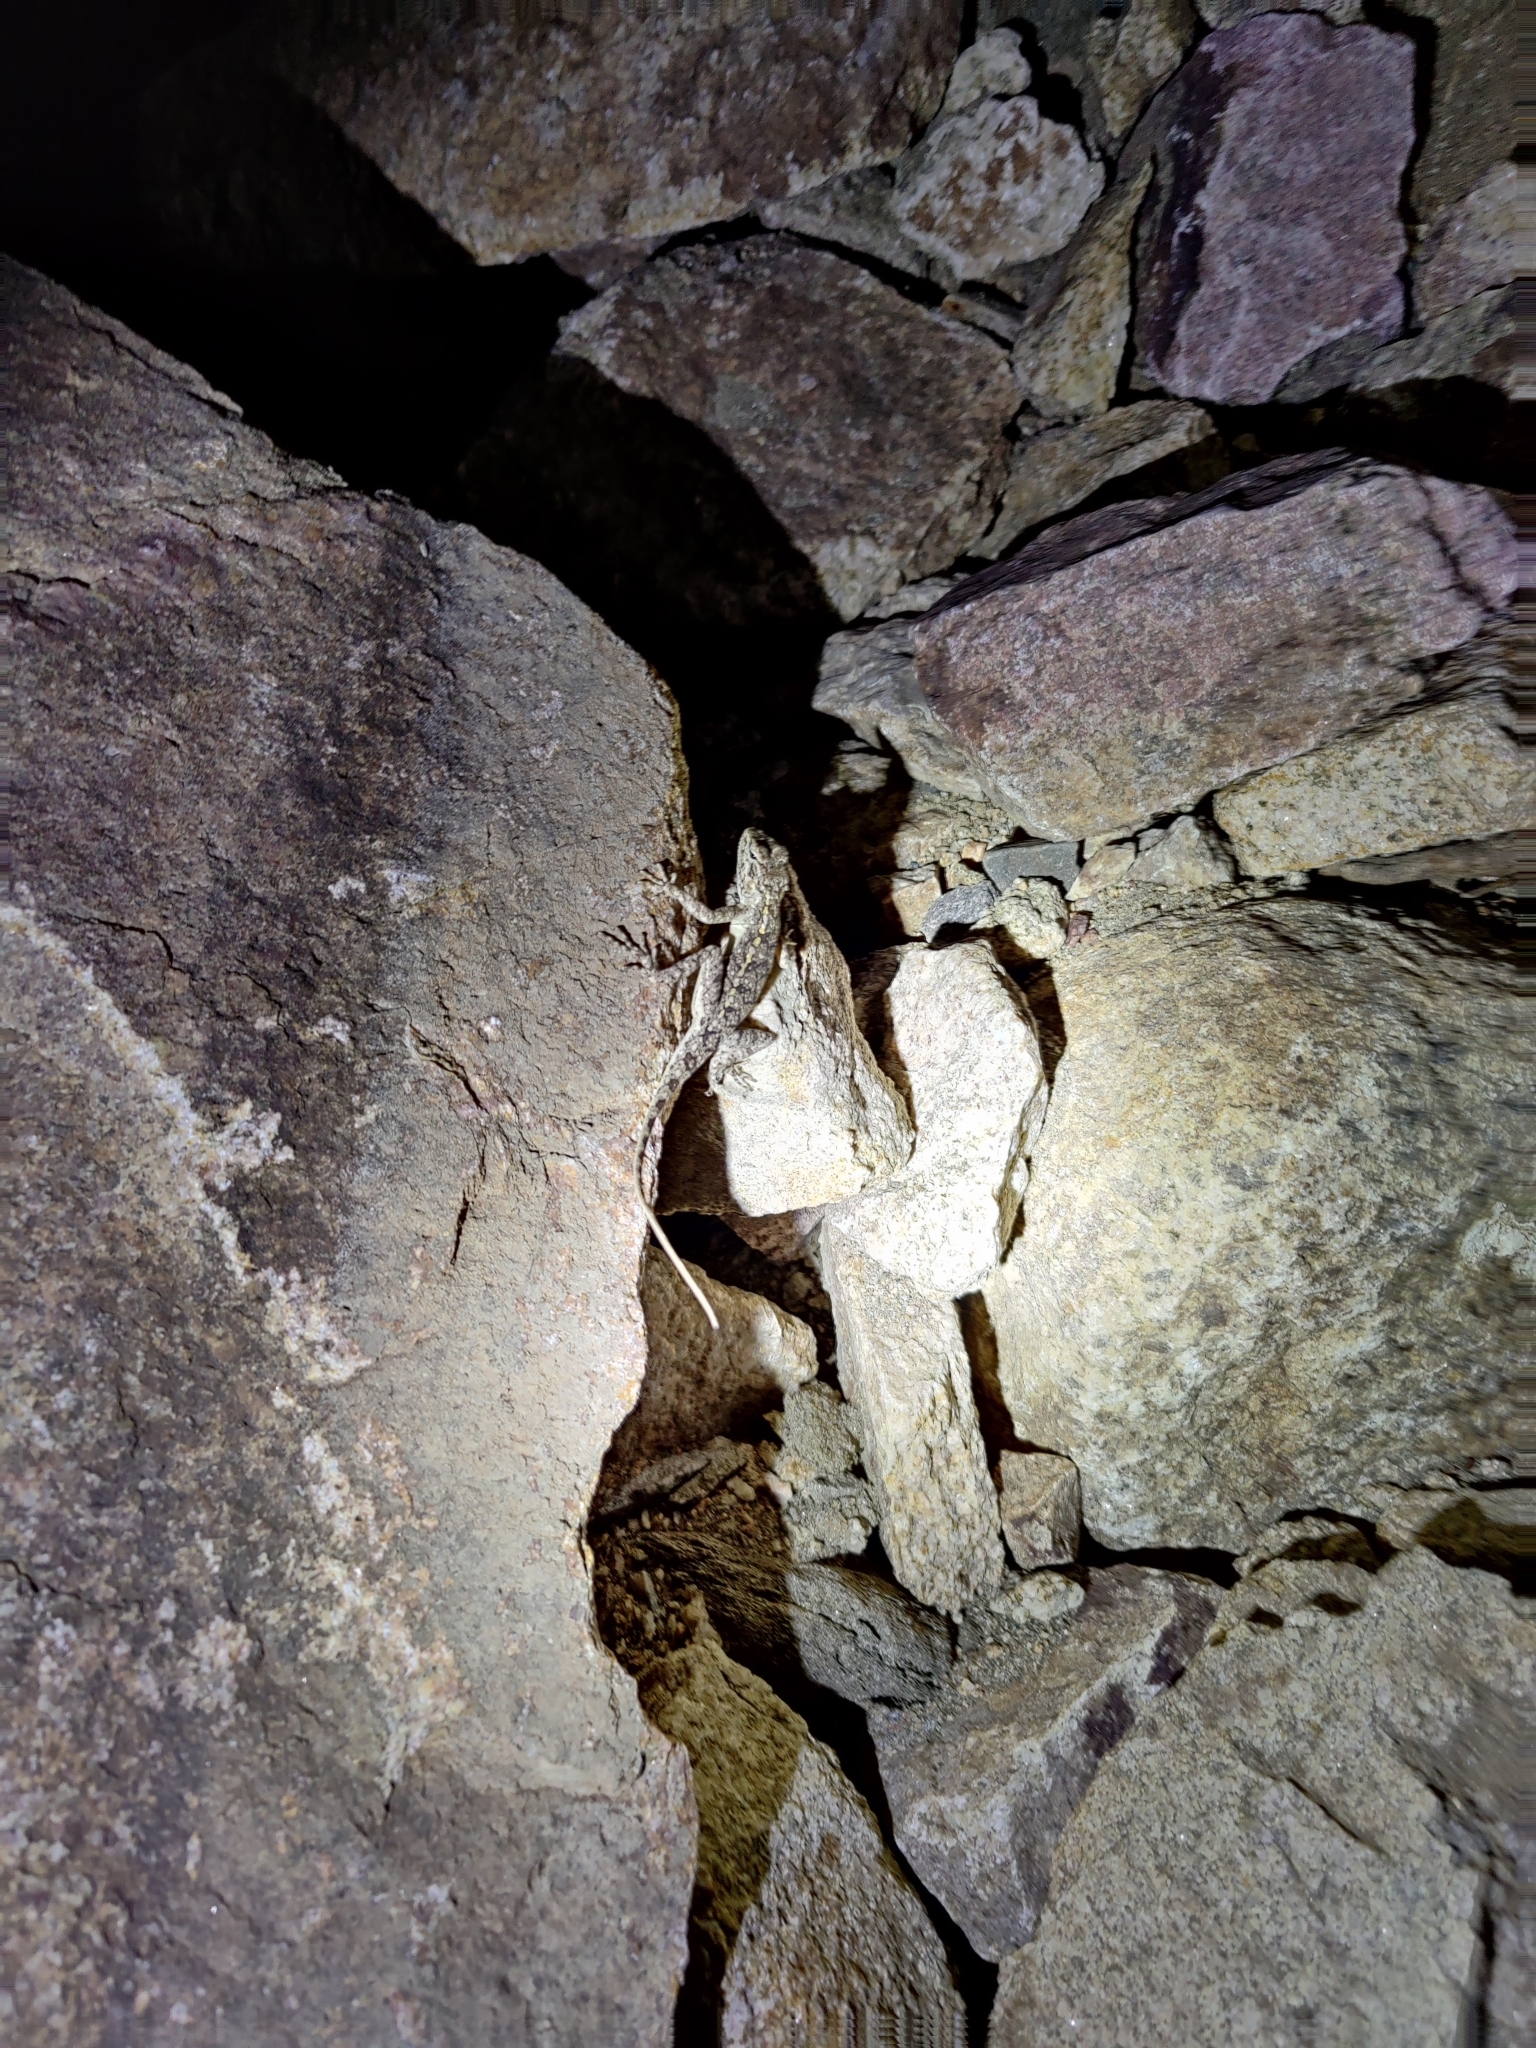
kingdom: Animalia
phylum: Chordata
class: Squamata
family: Agamidae
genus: Psammophilus
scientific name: Psammophilus dorsalis
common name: South indian rock agama
